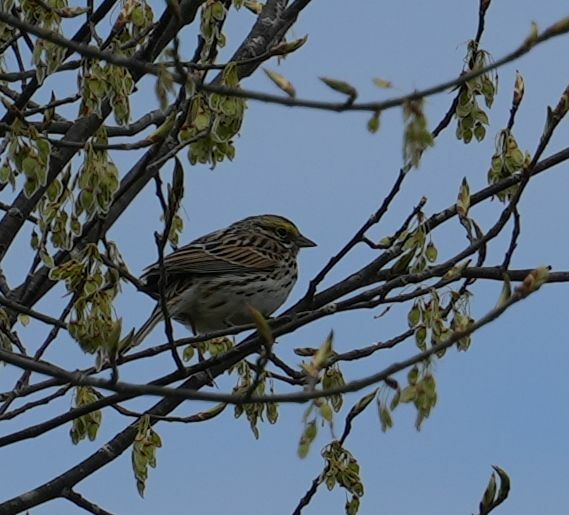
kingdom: Animalia
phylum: Chordata
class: Aves
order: Passeriformes
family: Passerellidae
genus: Passerculus
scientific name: Passerculus sandwichensis
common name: Savannah sparrow
